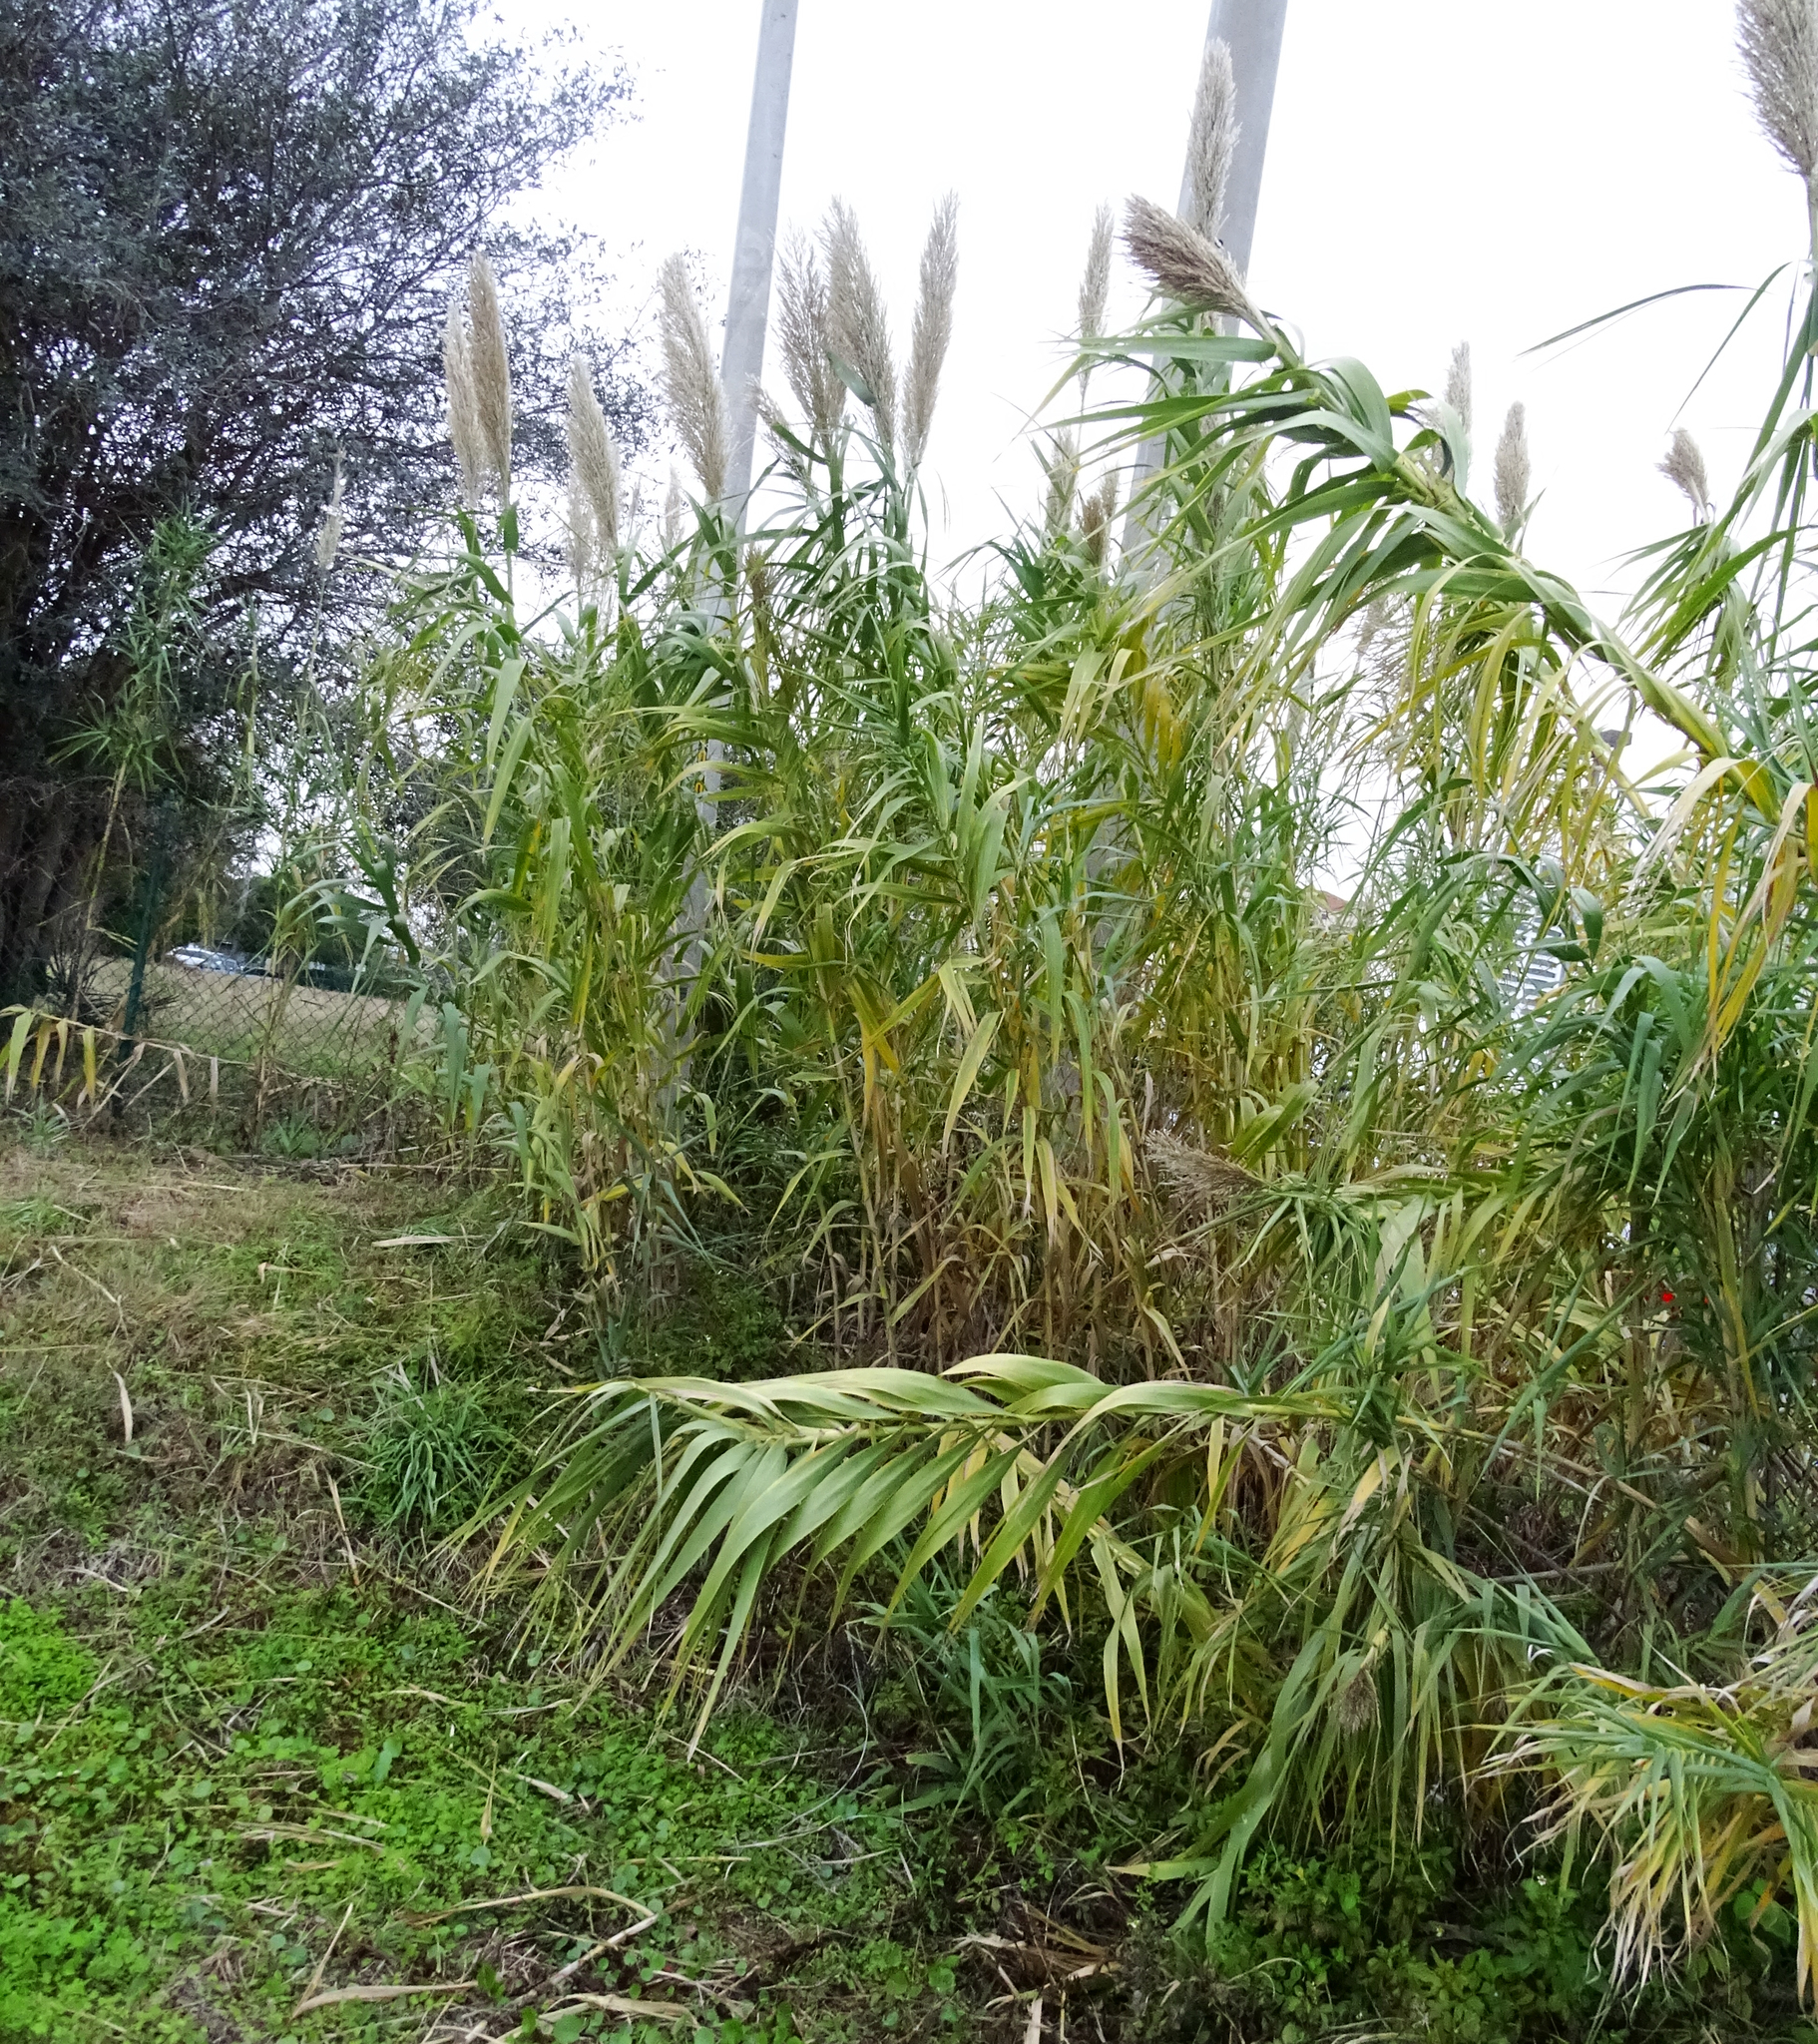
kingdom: Plantae
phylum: Tracheophyta
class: Liliopsida
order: Poales
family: Poaceae
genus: Arundo
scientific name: Arundo donax
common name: Giant reed
